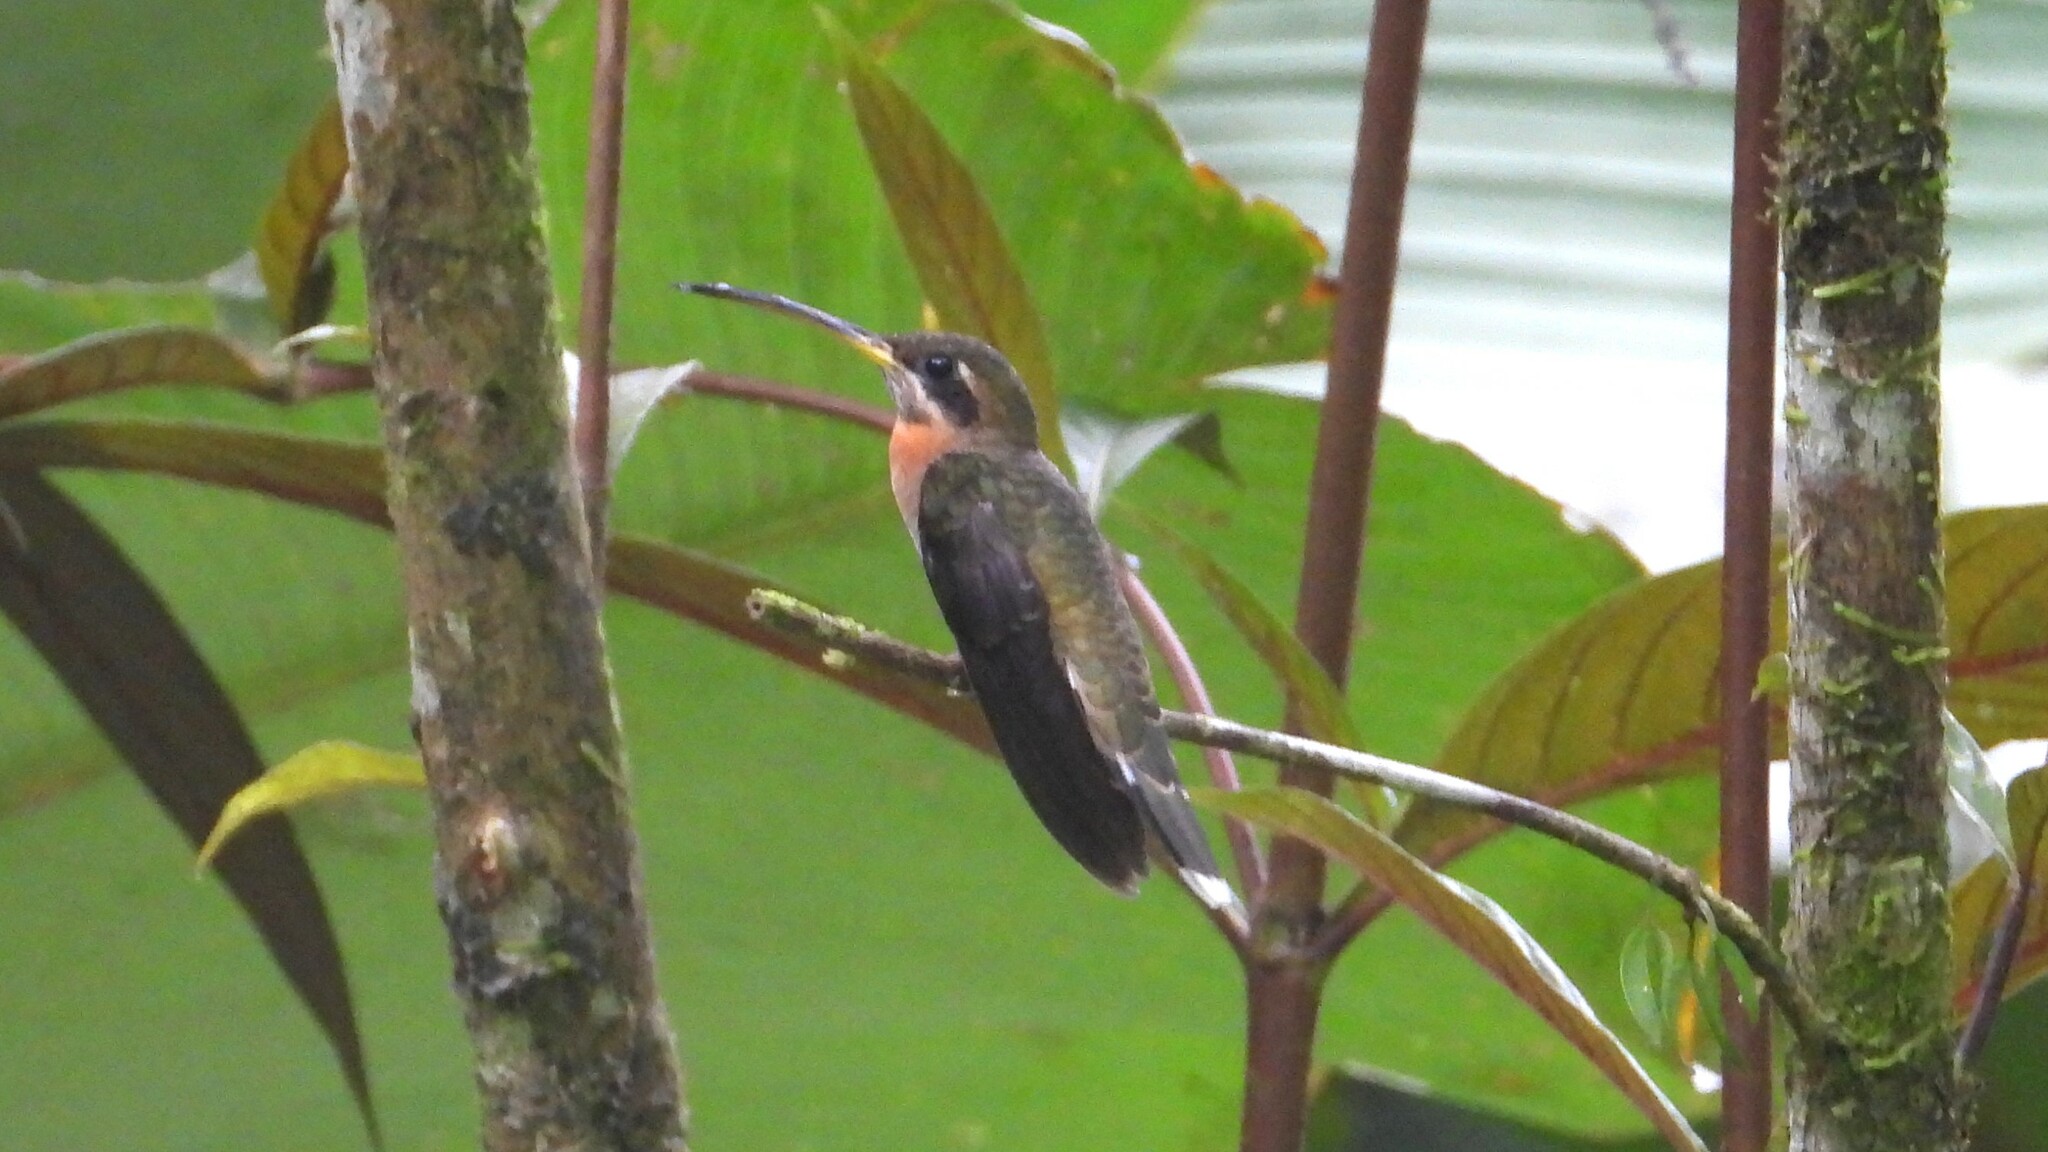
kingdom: Animalia
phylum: Chordata
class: Aves
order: Apodiformes
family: Trochilidae
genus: Threnetes
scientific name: Threnetes ruckeri
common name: Band-tailed barbthroat
